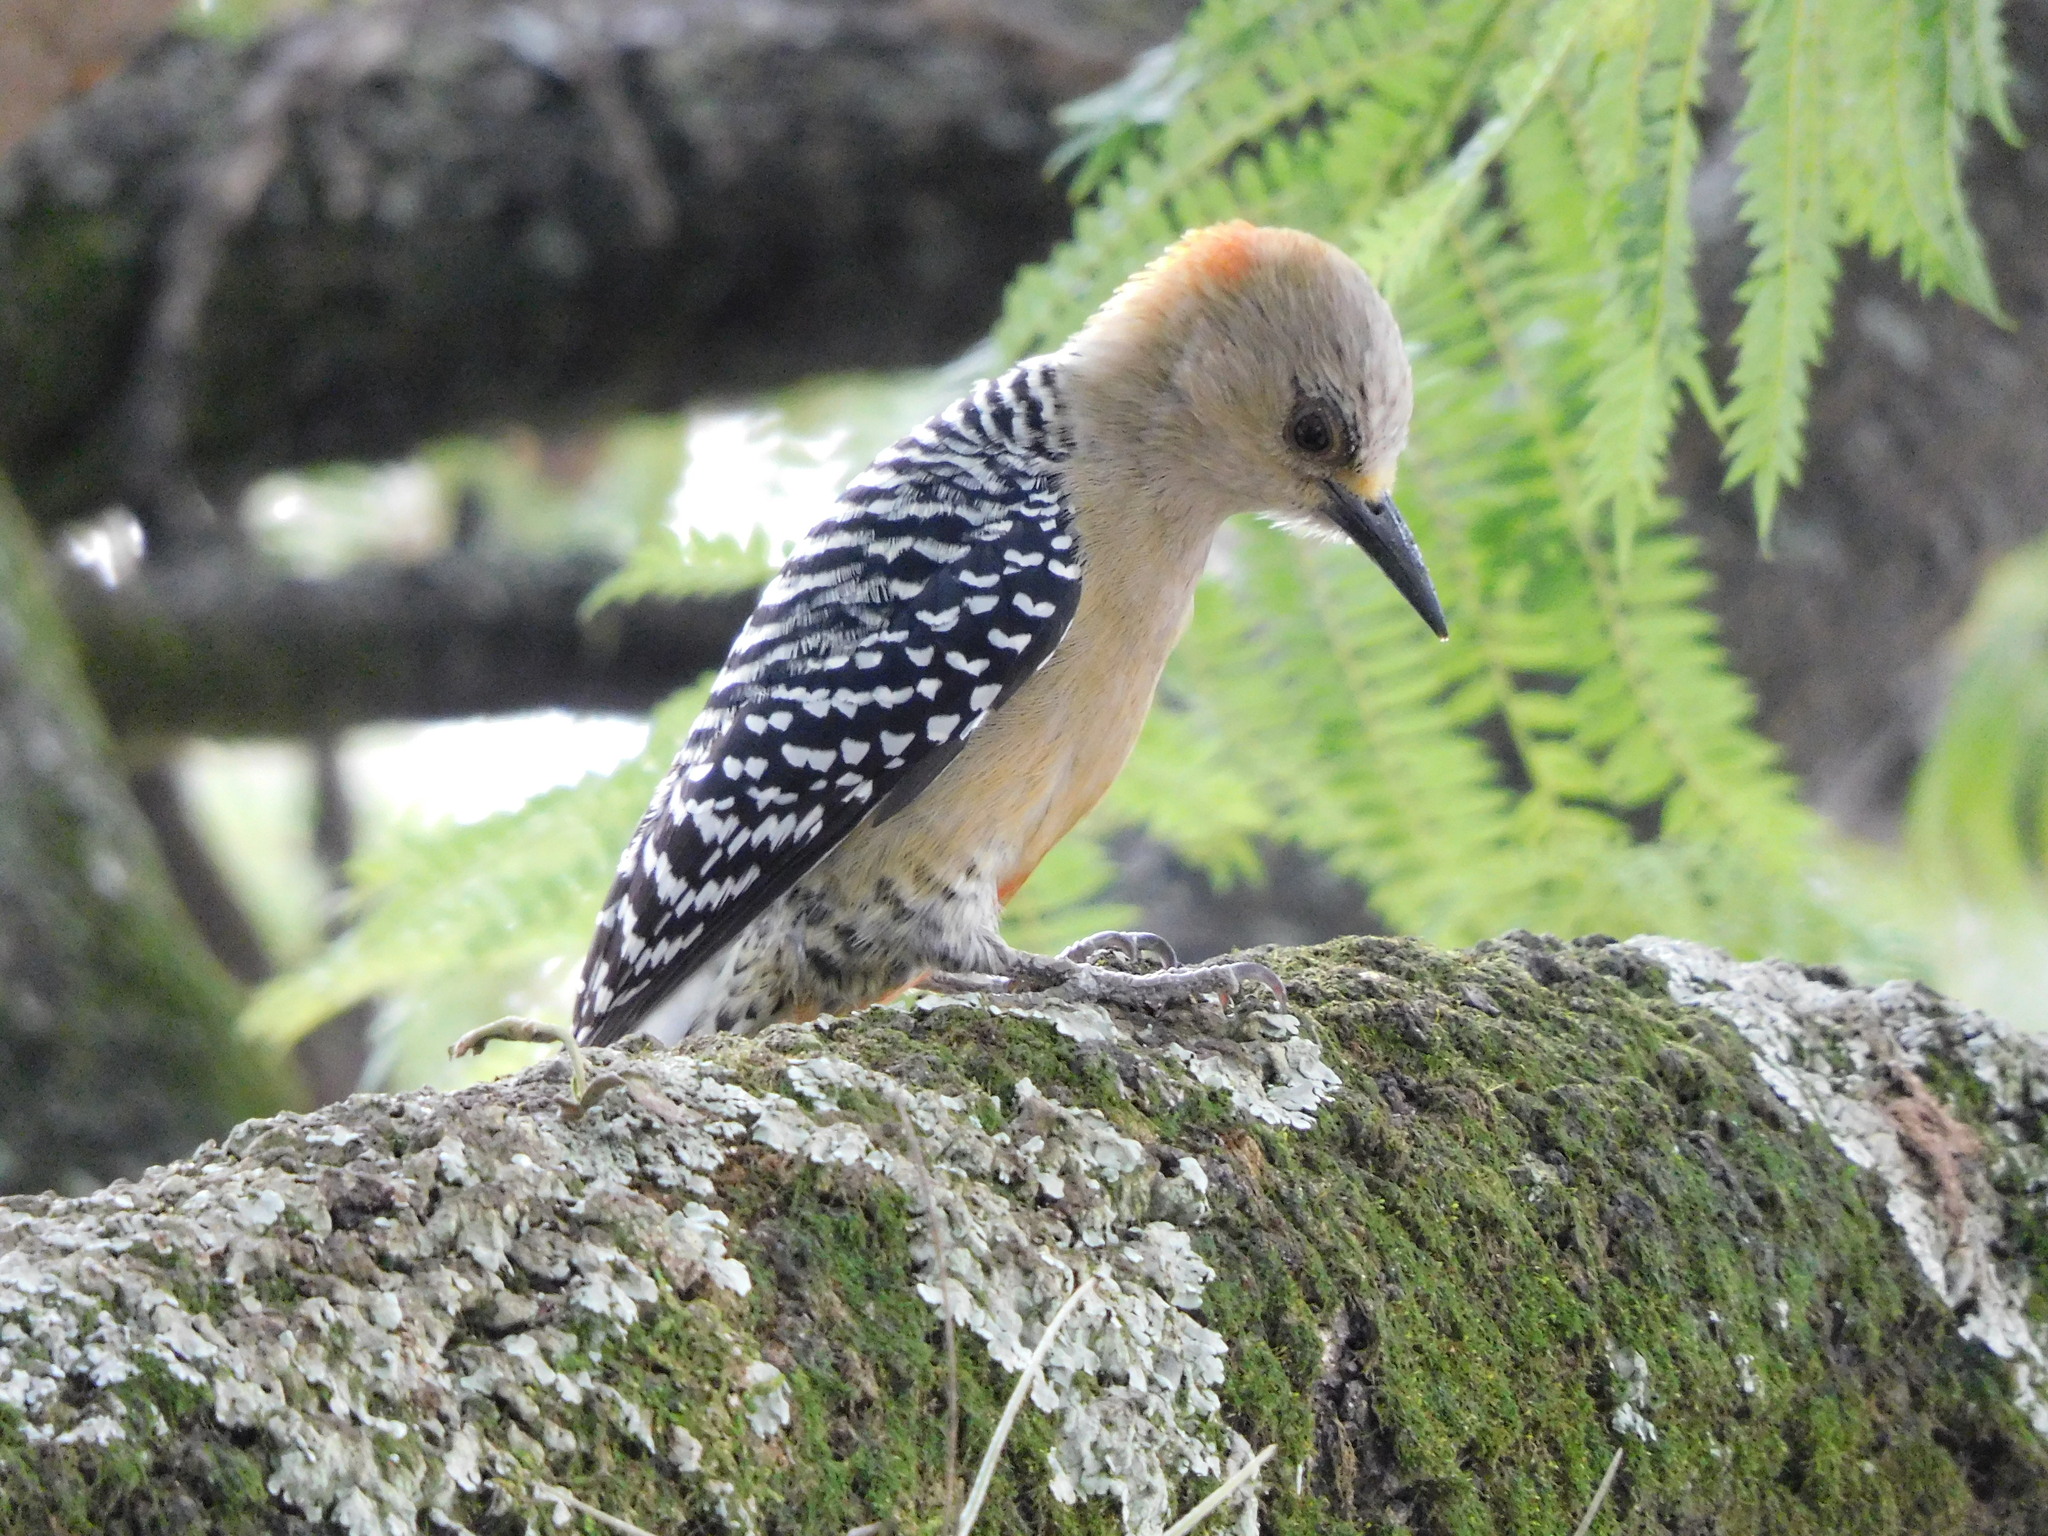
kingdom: Animalia
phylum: Chordata
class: Aves
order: Piciformes
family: Picidae
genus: Melanerpes
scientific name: Melanerpes rubricapillus
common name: Red-crowned woodpecker
